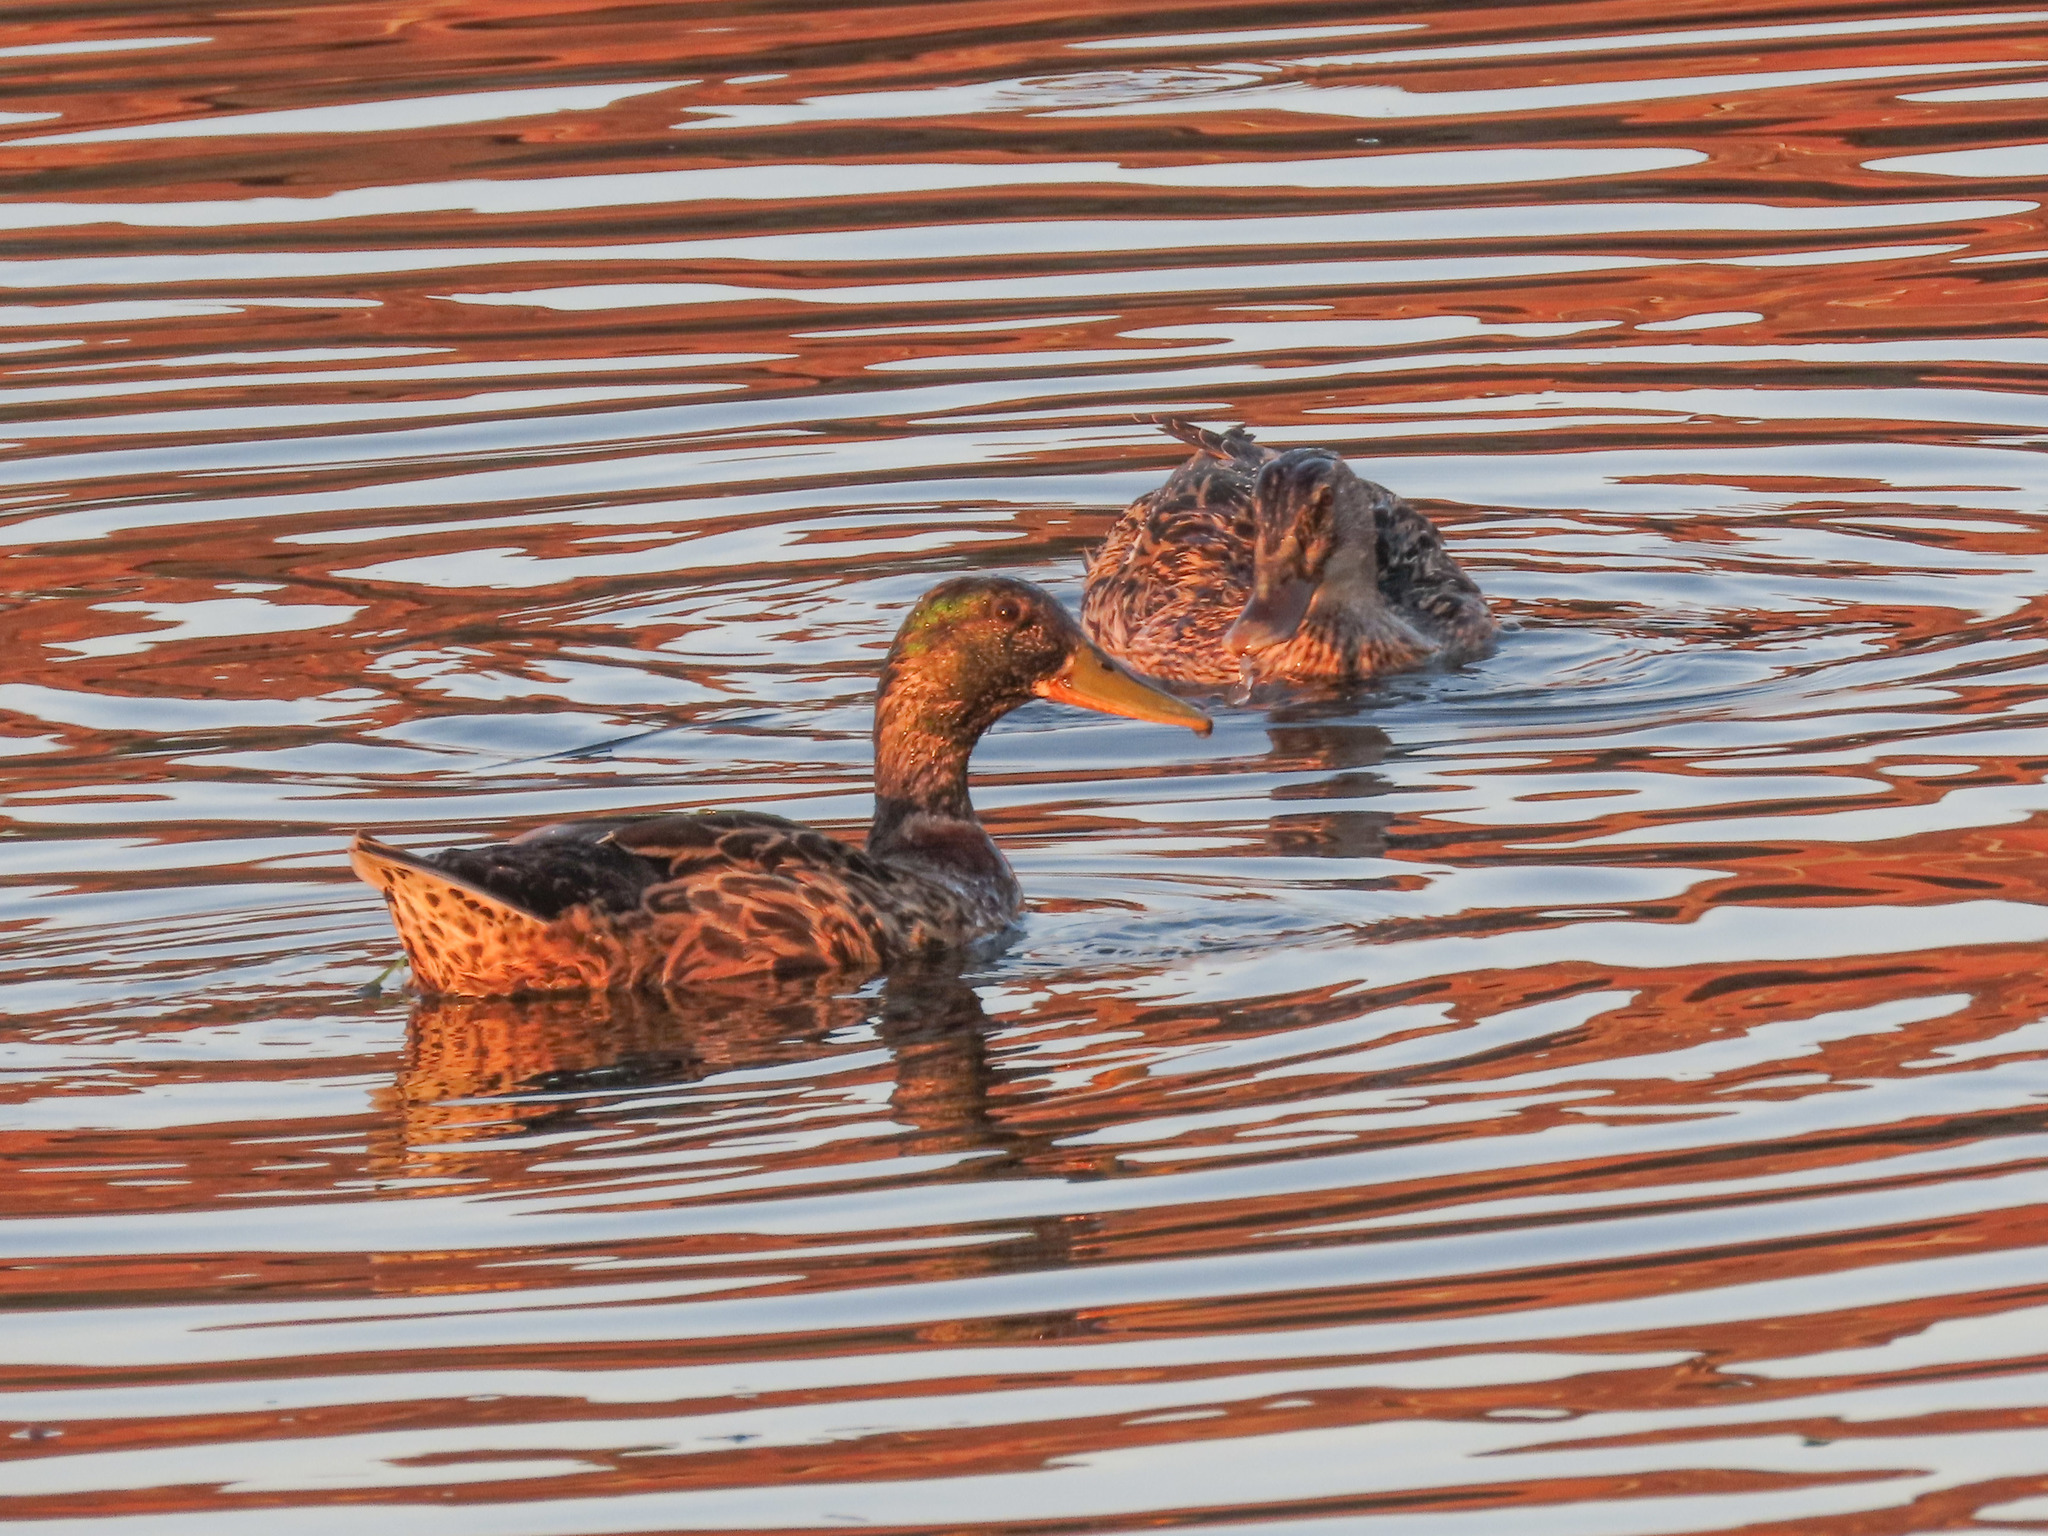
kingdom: Animalia
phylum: Chordata
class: Aves
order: Anseriformes
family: Anatidae
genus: Anas
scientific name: Anas platyrhynchos
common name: Mallard
